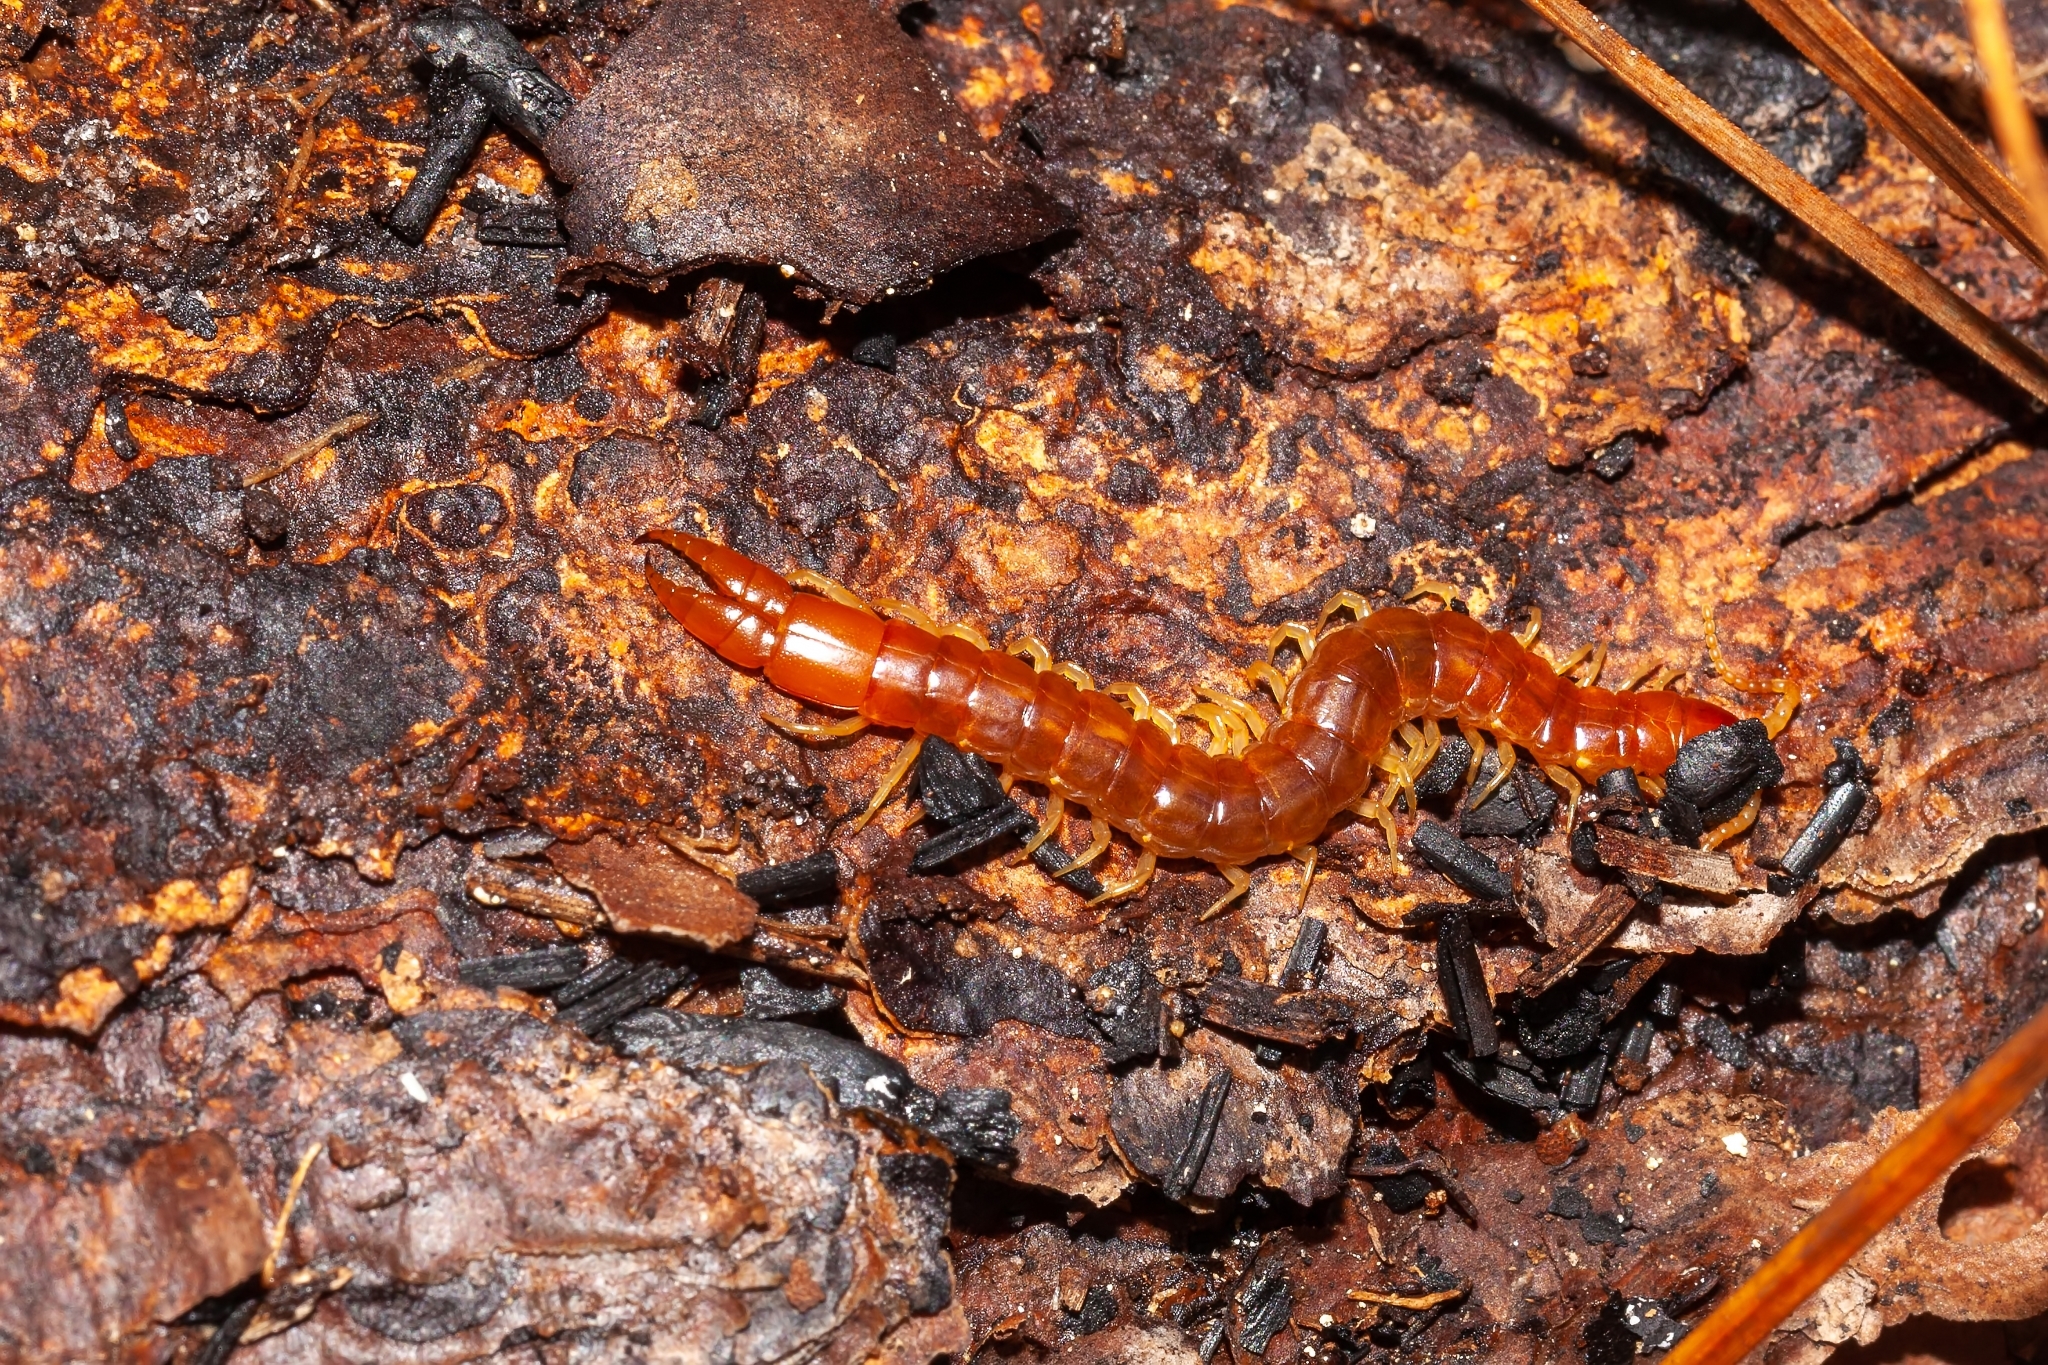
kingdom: Animalia
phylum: Arthropoda
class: Chilopoda
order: Scolopendromorpha
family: Cryptopidae
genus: Theatops
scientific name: Theatops posticus
